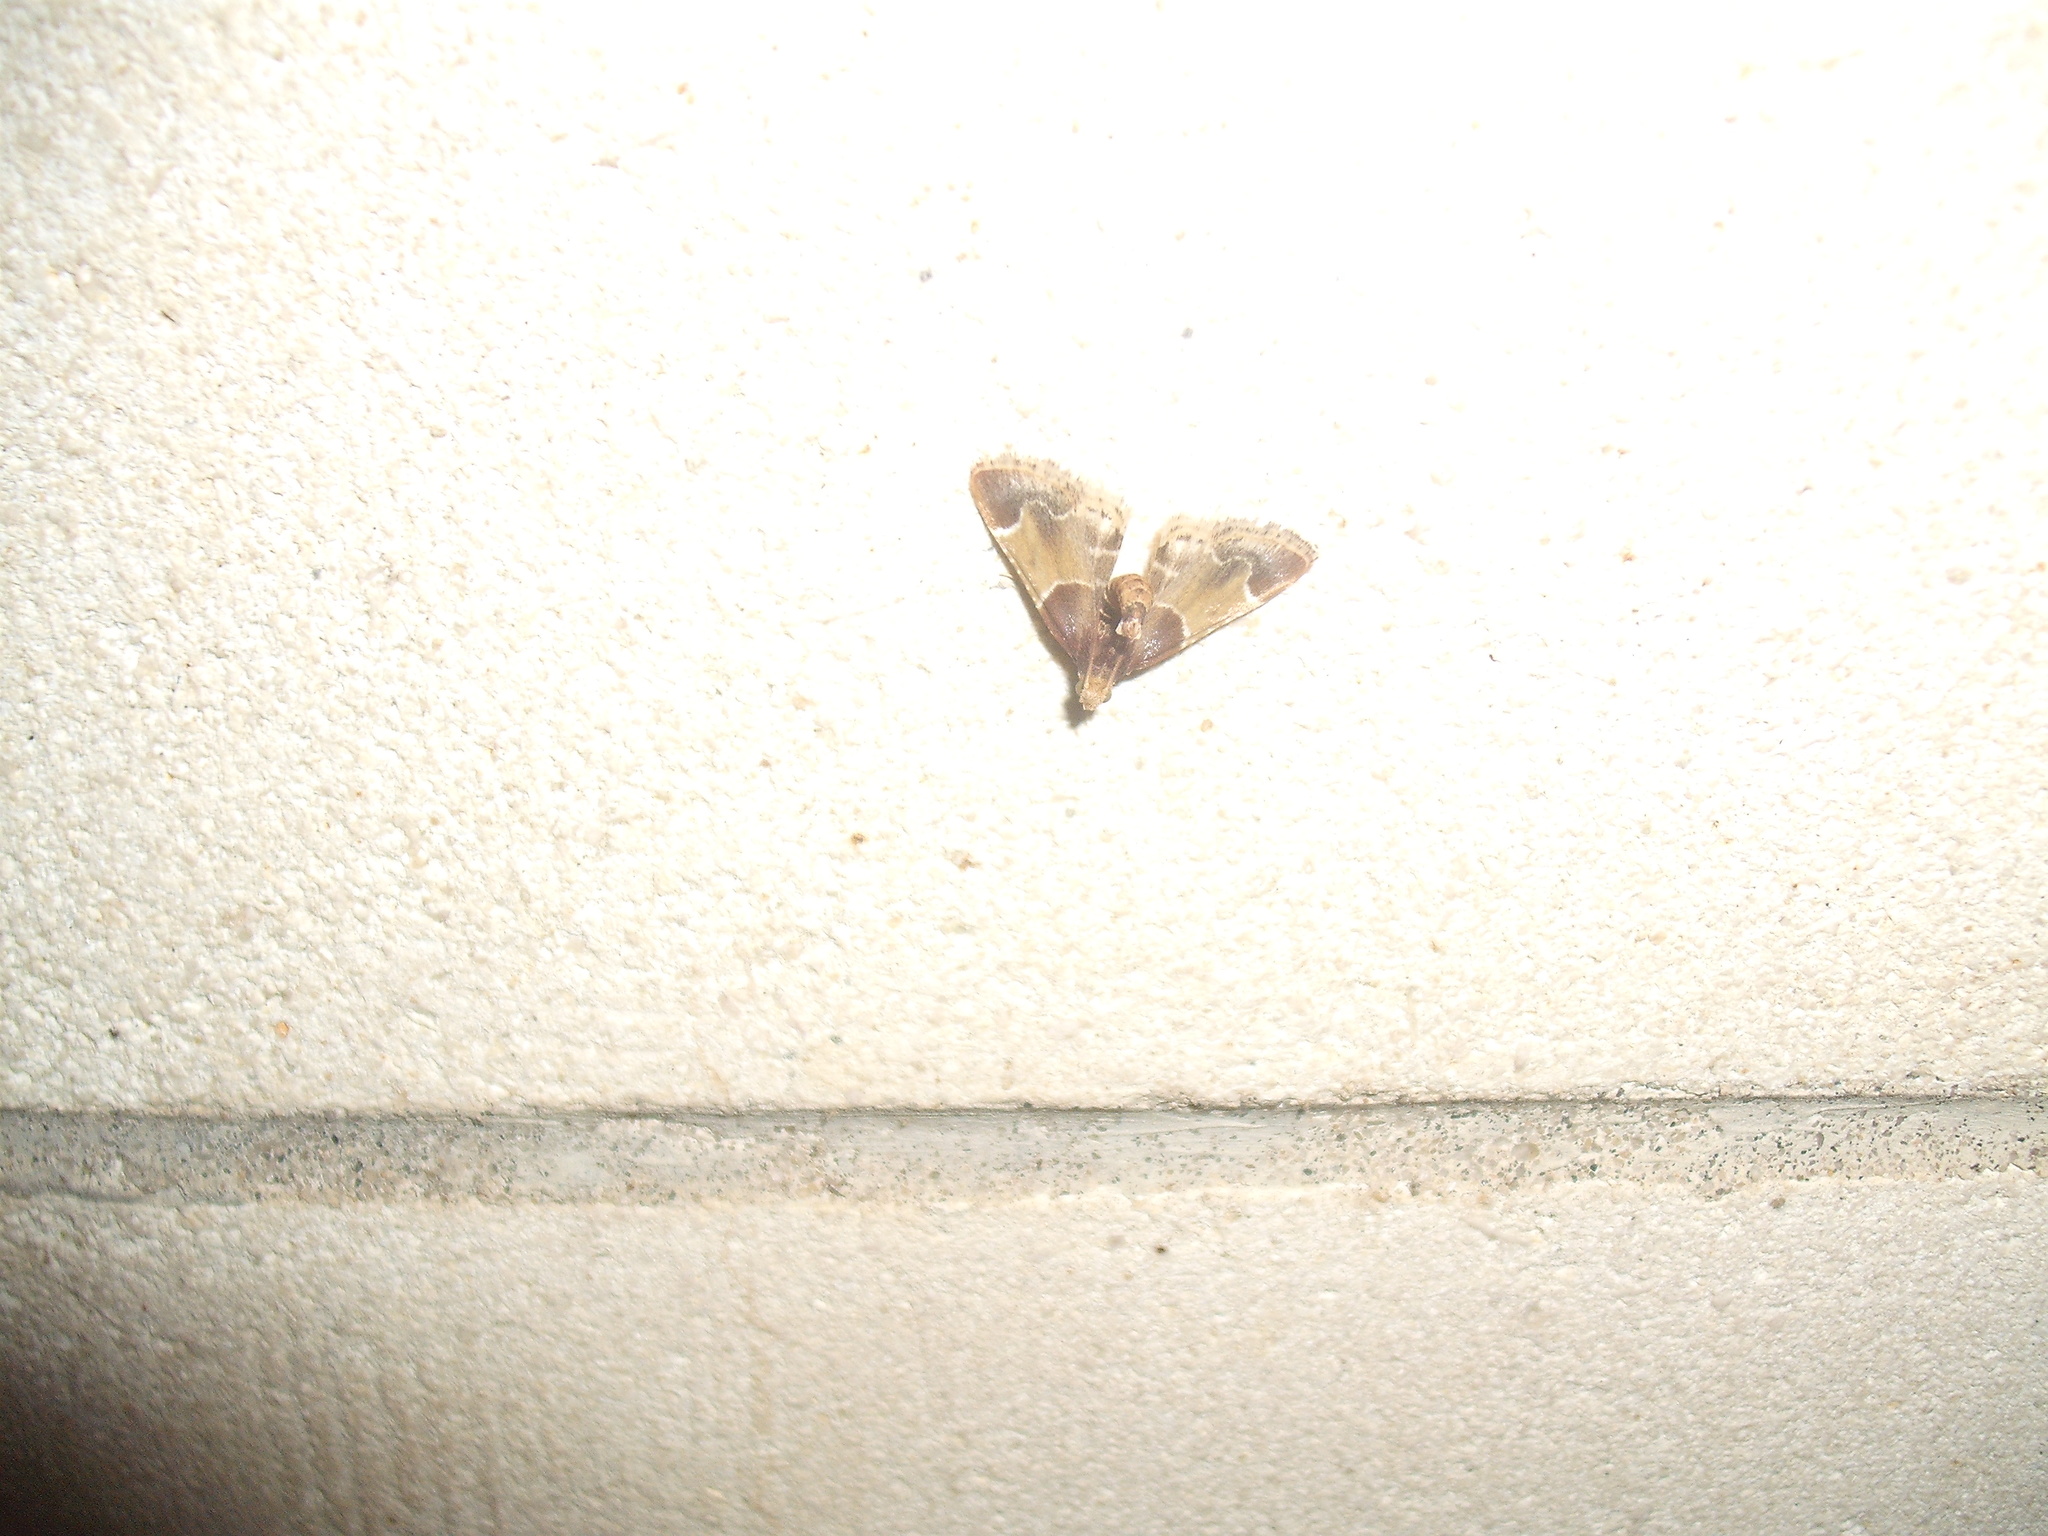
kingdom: Animalia
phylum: Arthropoda
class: Insecta
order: Lepidoptera
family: Pyralidae
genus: Pyralis
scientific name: Pyralis farinalis
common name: Meal moth
